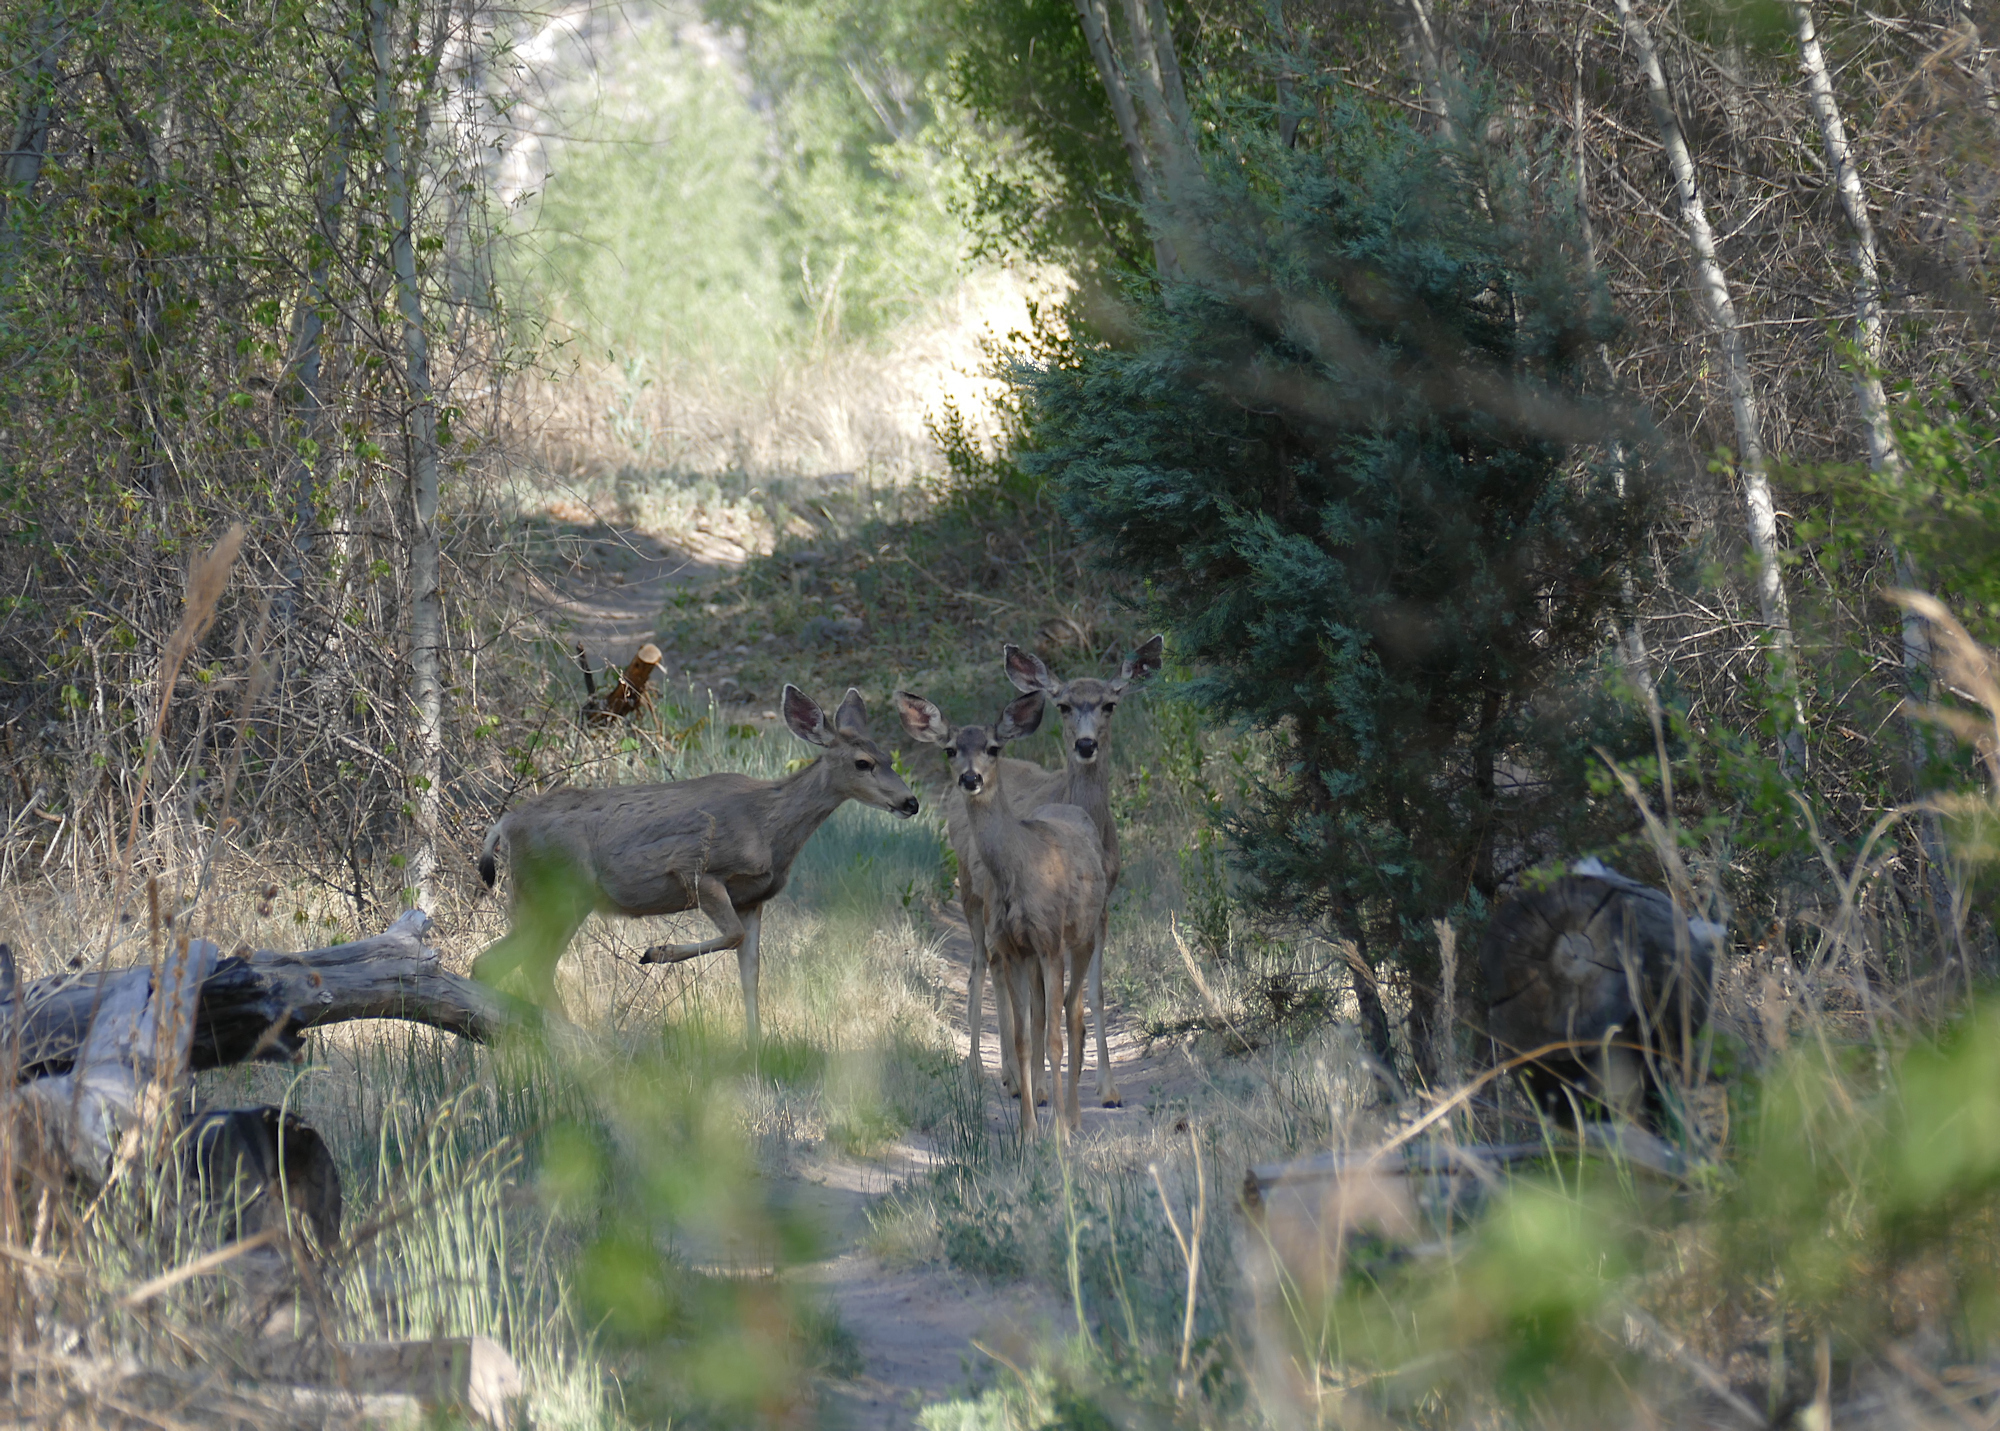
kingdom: Animalia
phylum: Chordata
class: Mammalia
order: Artiodactyla
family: Cervidae
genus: Odocoileus
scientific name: Odocoileus hemionus
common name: Mule deer
